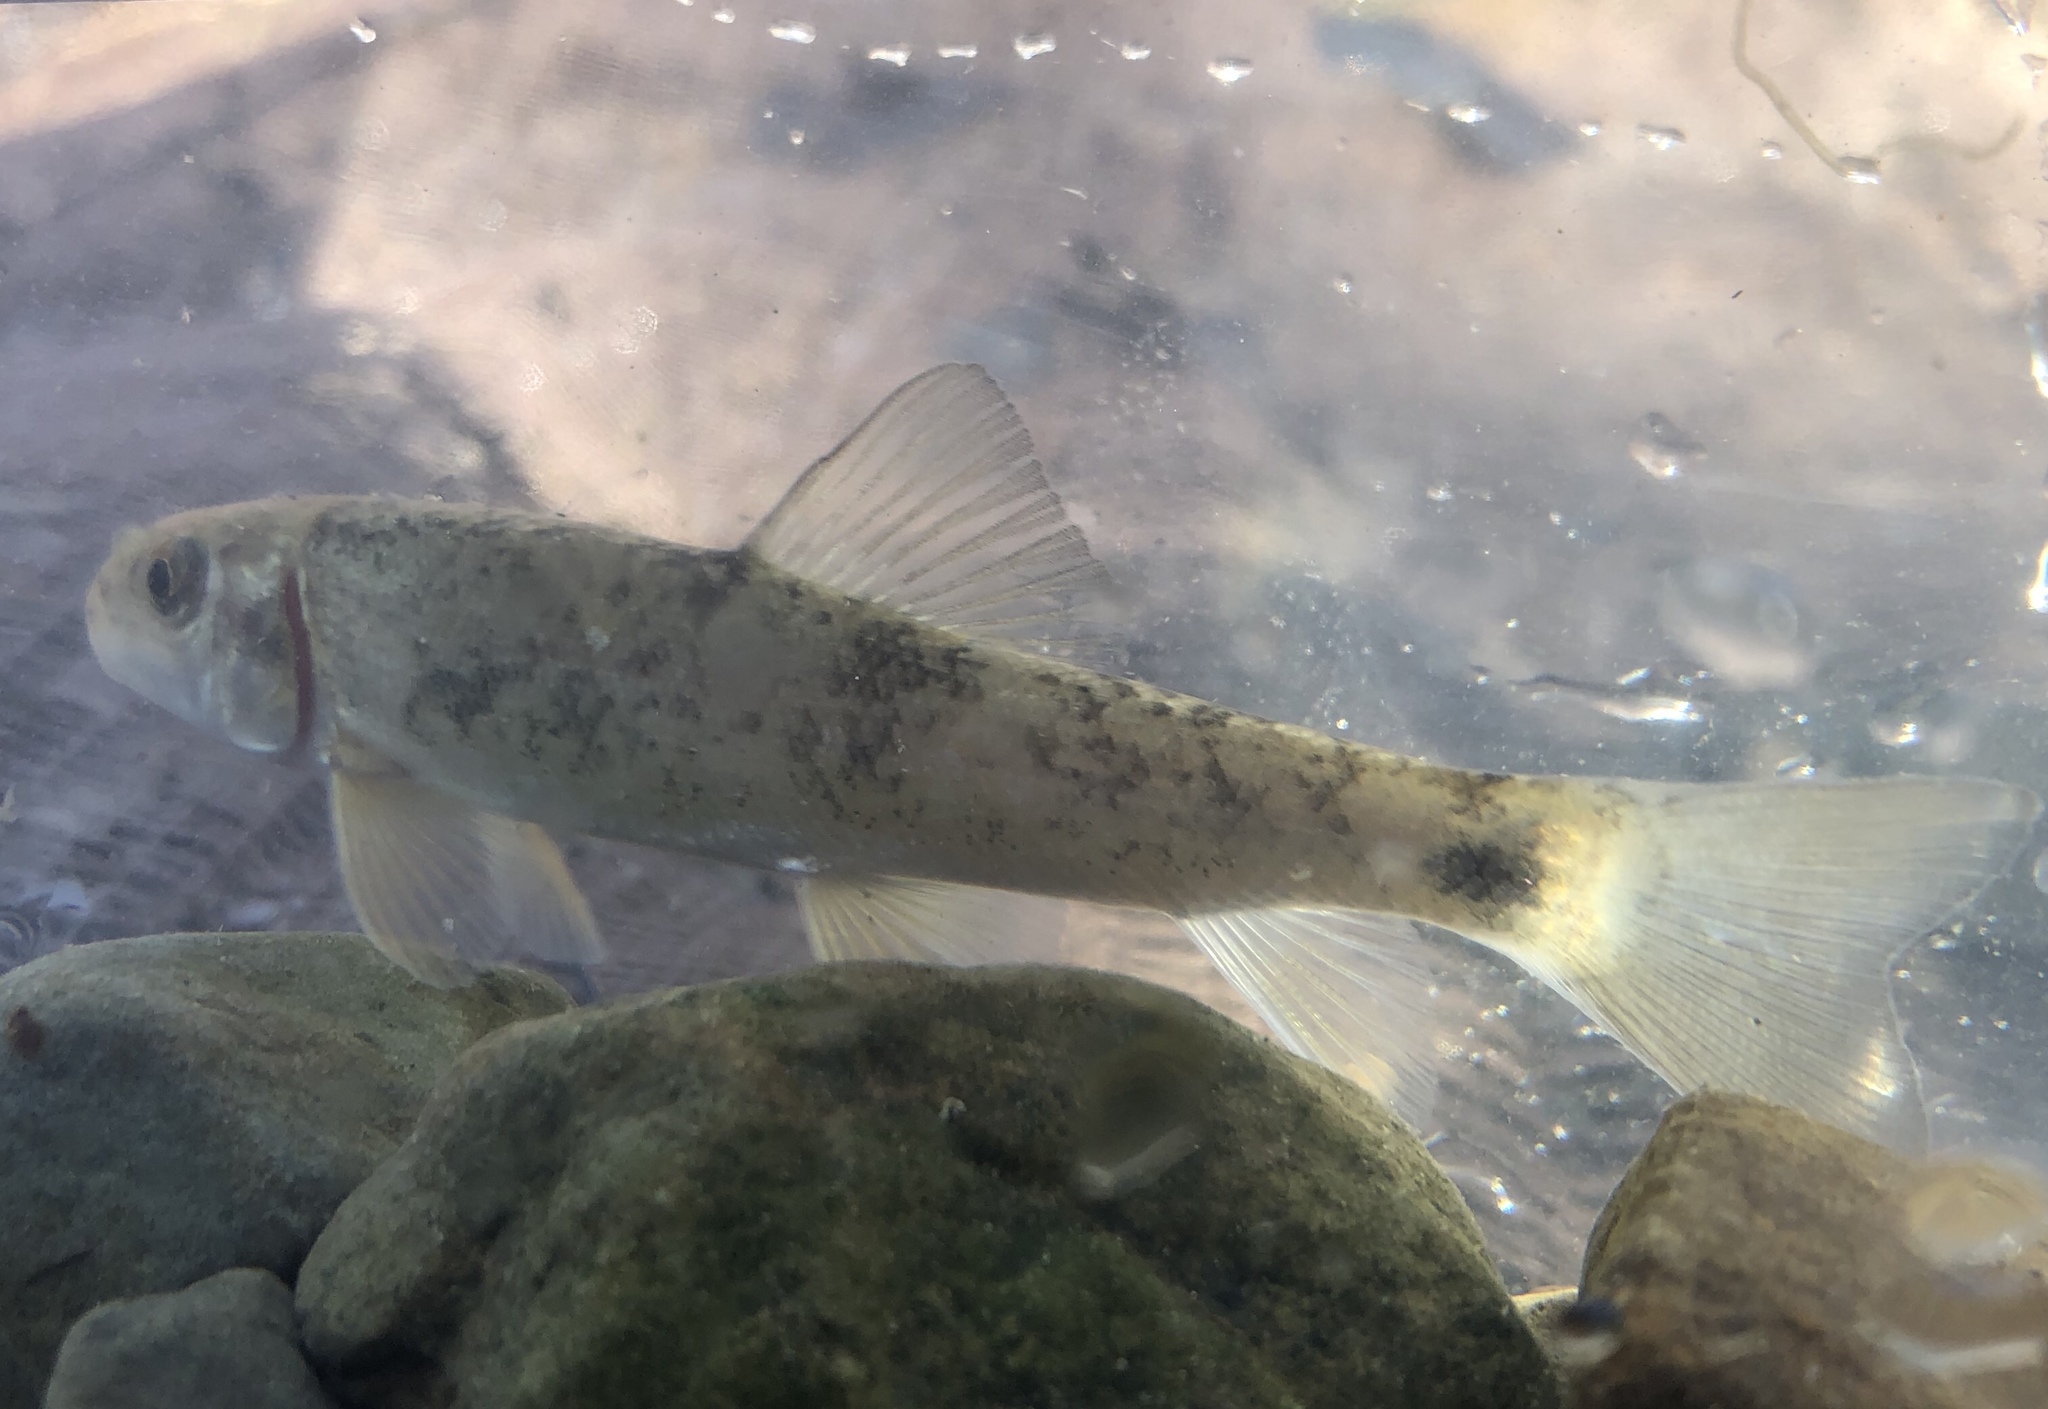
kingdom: Animalia
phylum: Chordata
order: Cypriniformes
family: Catostomidae
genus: Catostomus
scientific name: Catostomus commersonii
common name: White sucker
